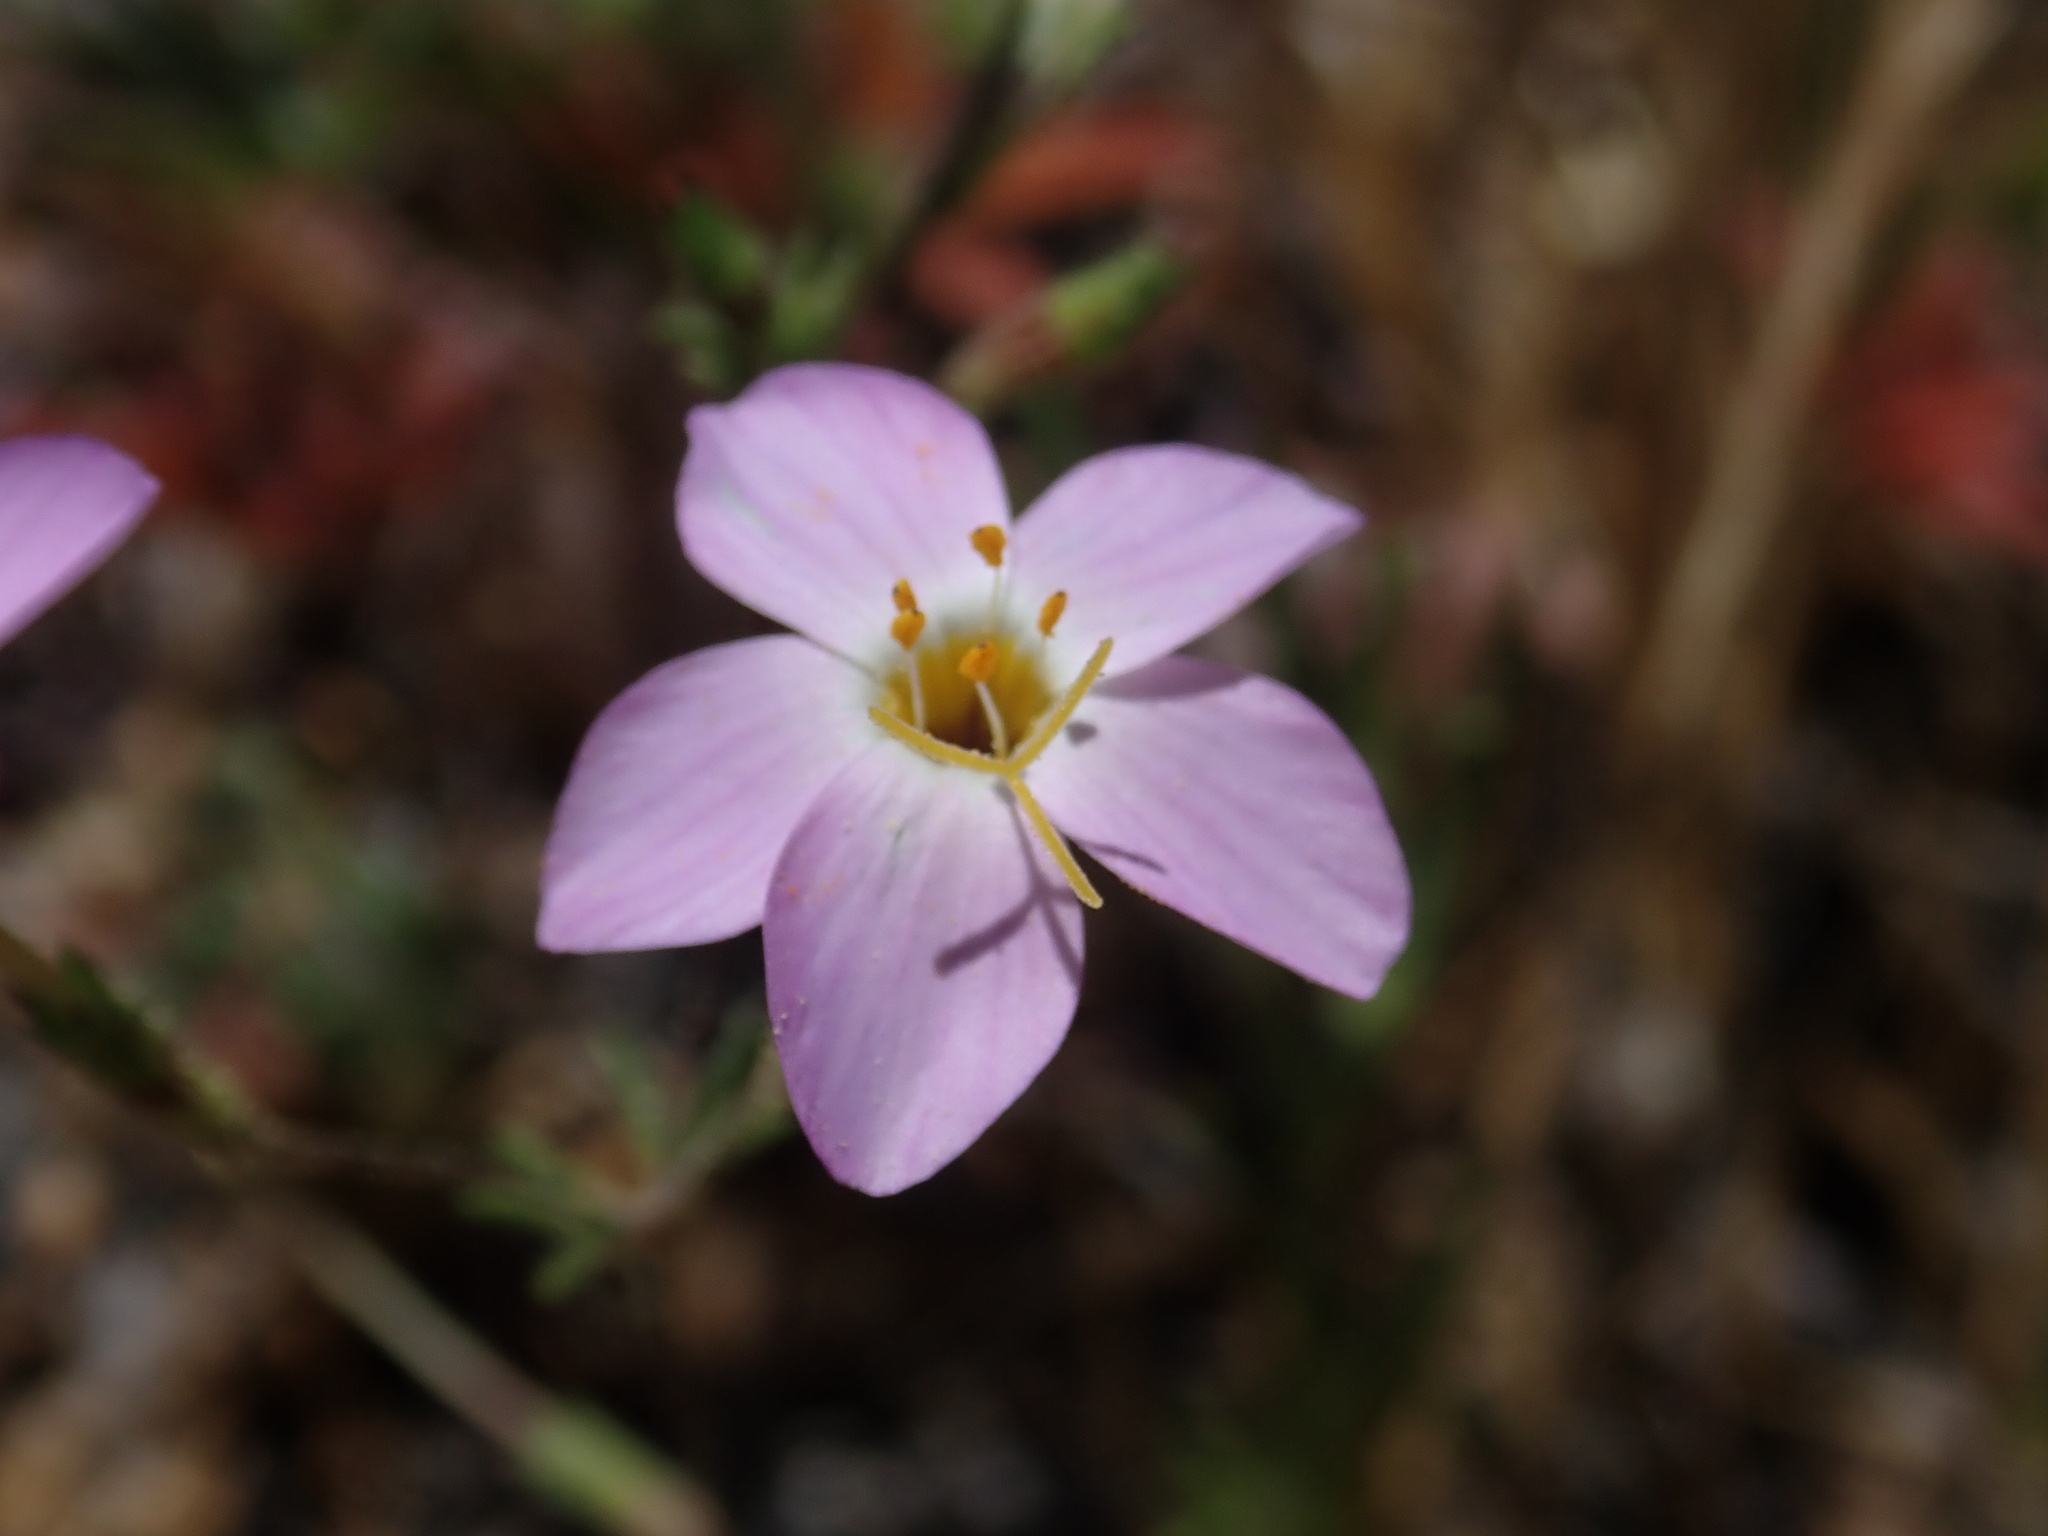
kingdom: Plantae
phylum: Tracheophyta
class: Magnoliopsida
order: Ericales
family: Polemoniaceae
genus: Leptosiphon
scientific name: Leptosiphon ambiguus
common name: Serpentine linanthus
